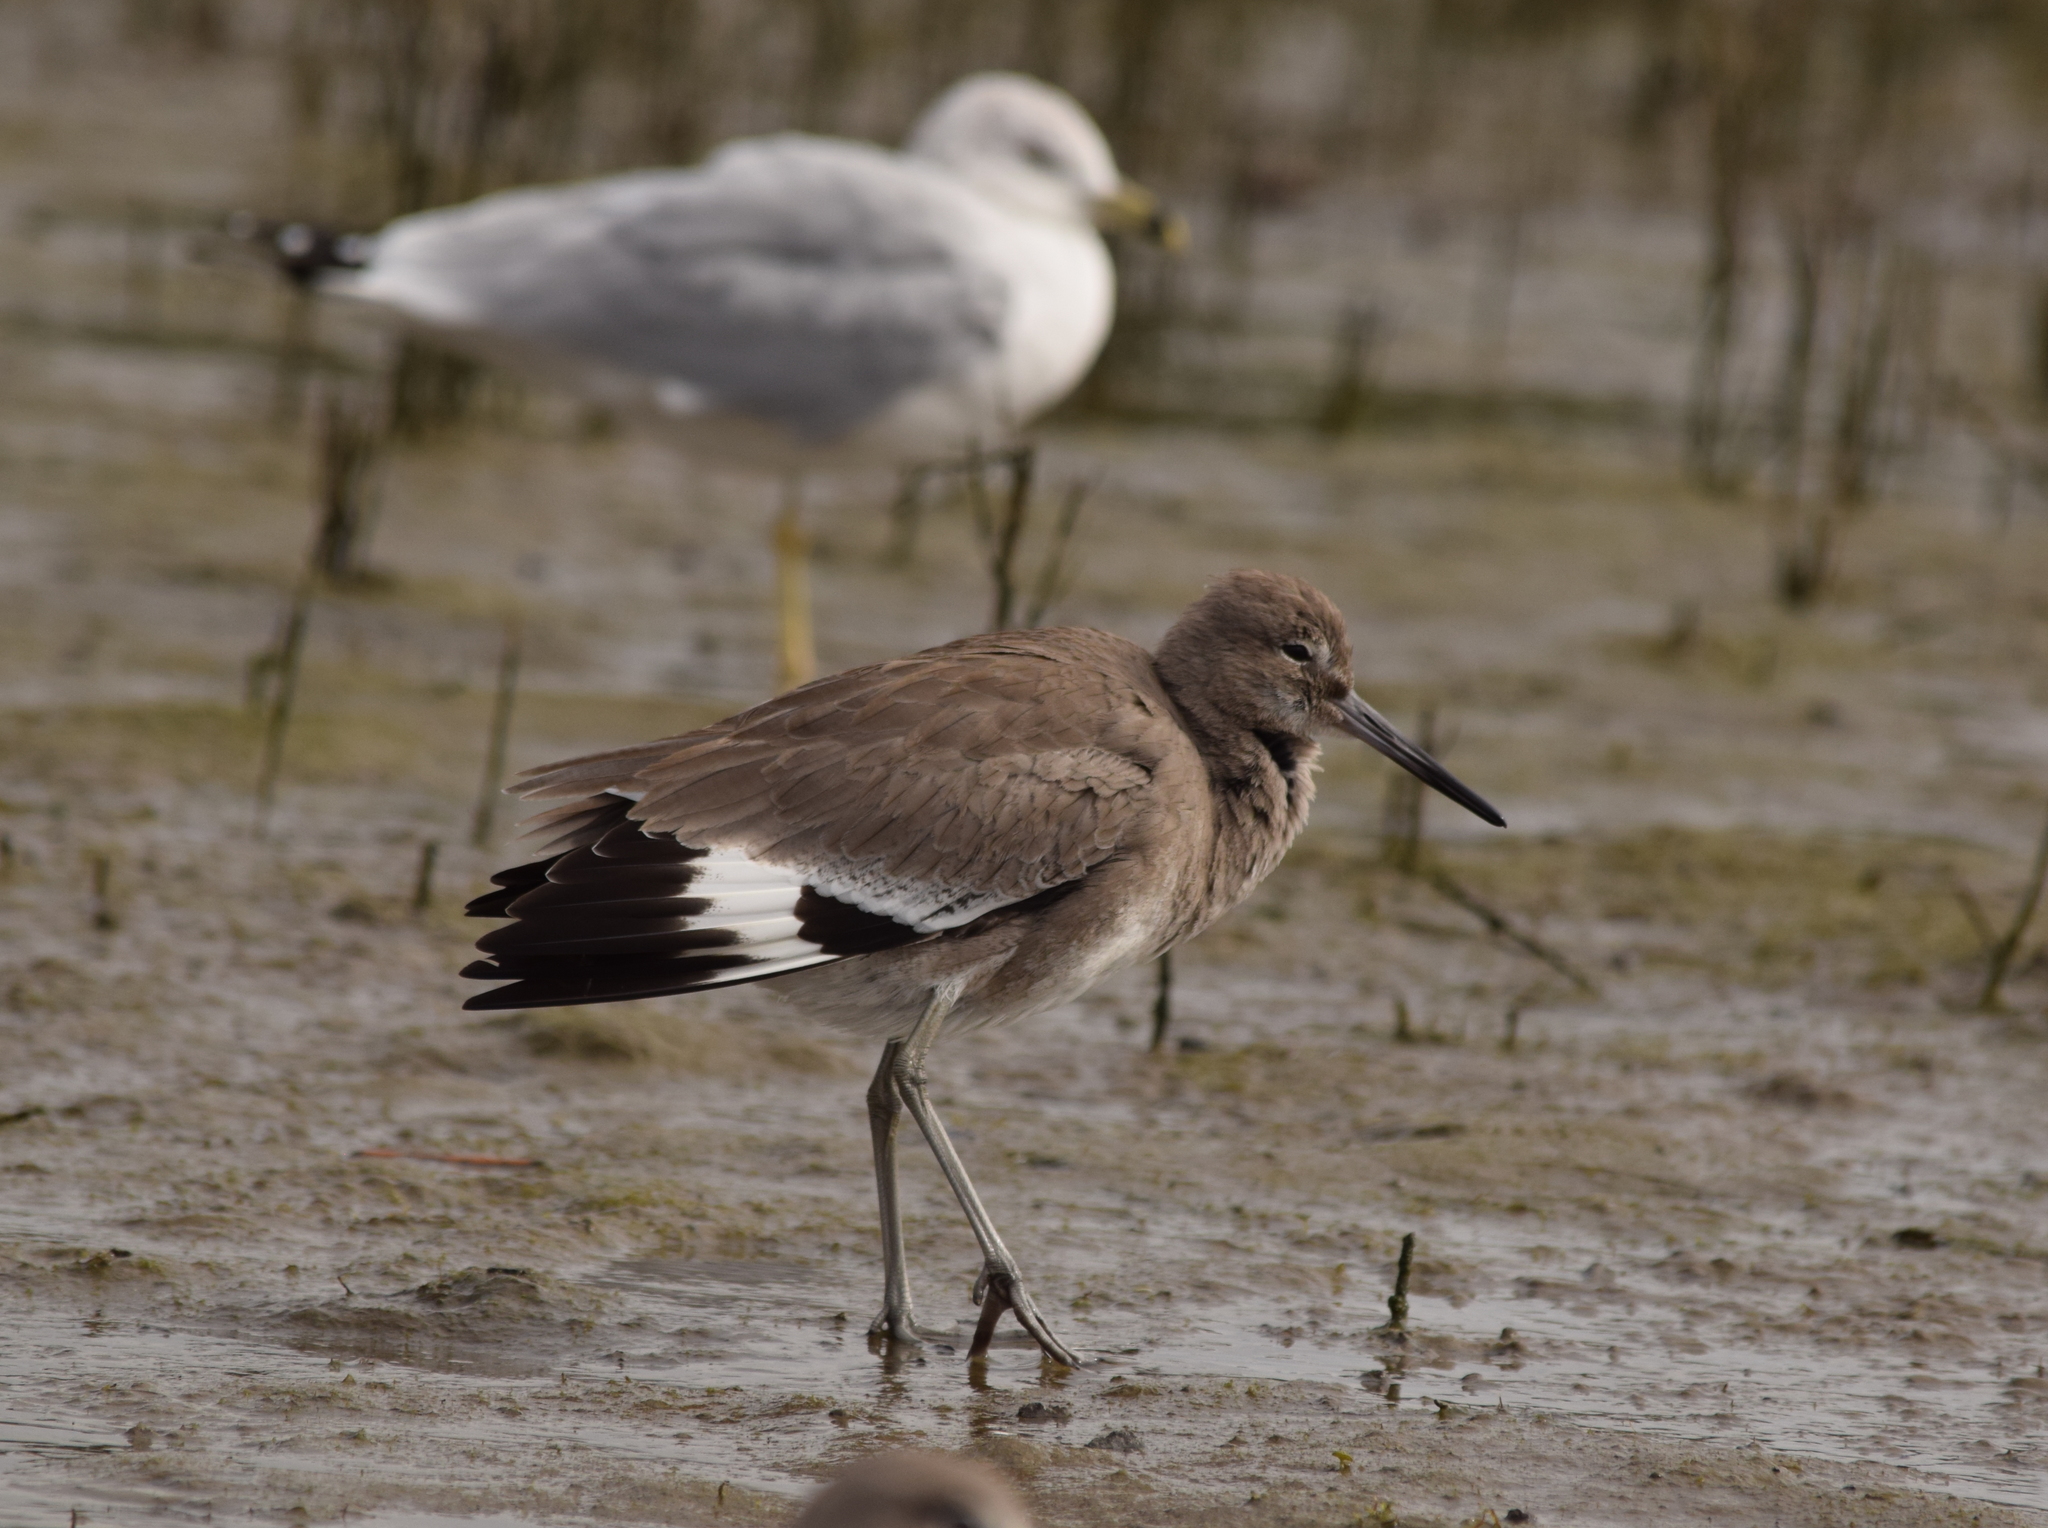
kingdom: Animalia
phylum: Chordata
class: Aves
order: Charadriiformes
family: Scolopacidae
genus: Tringa
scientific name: Tringa semipalmata
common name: Willet
